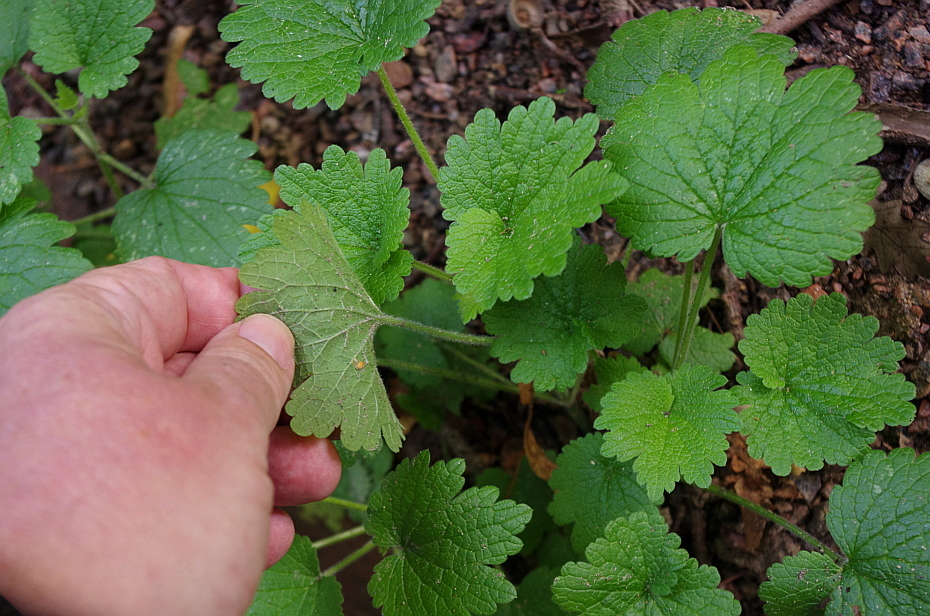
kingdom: Plantae
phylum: Tracheophyta
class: Magnoliopsida
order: Lamiales
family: Lamiaceae
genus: Leonurus
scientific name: Leonurus quinquelobatus
